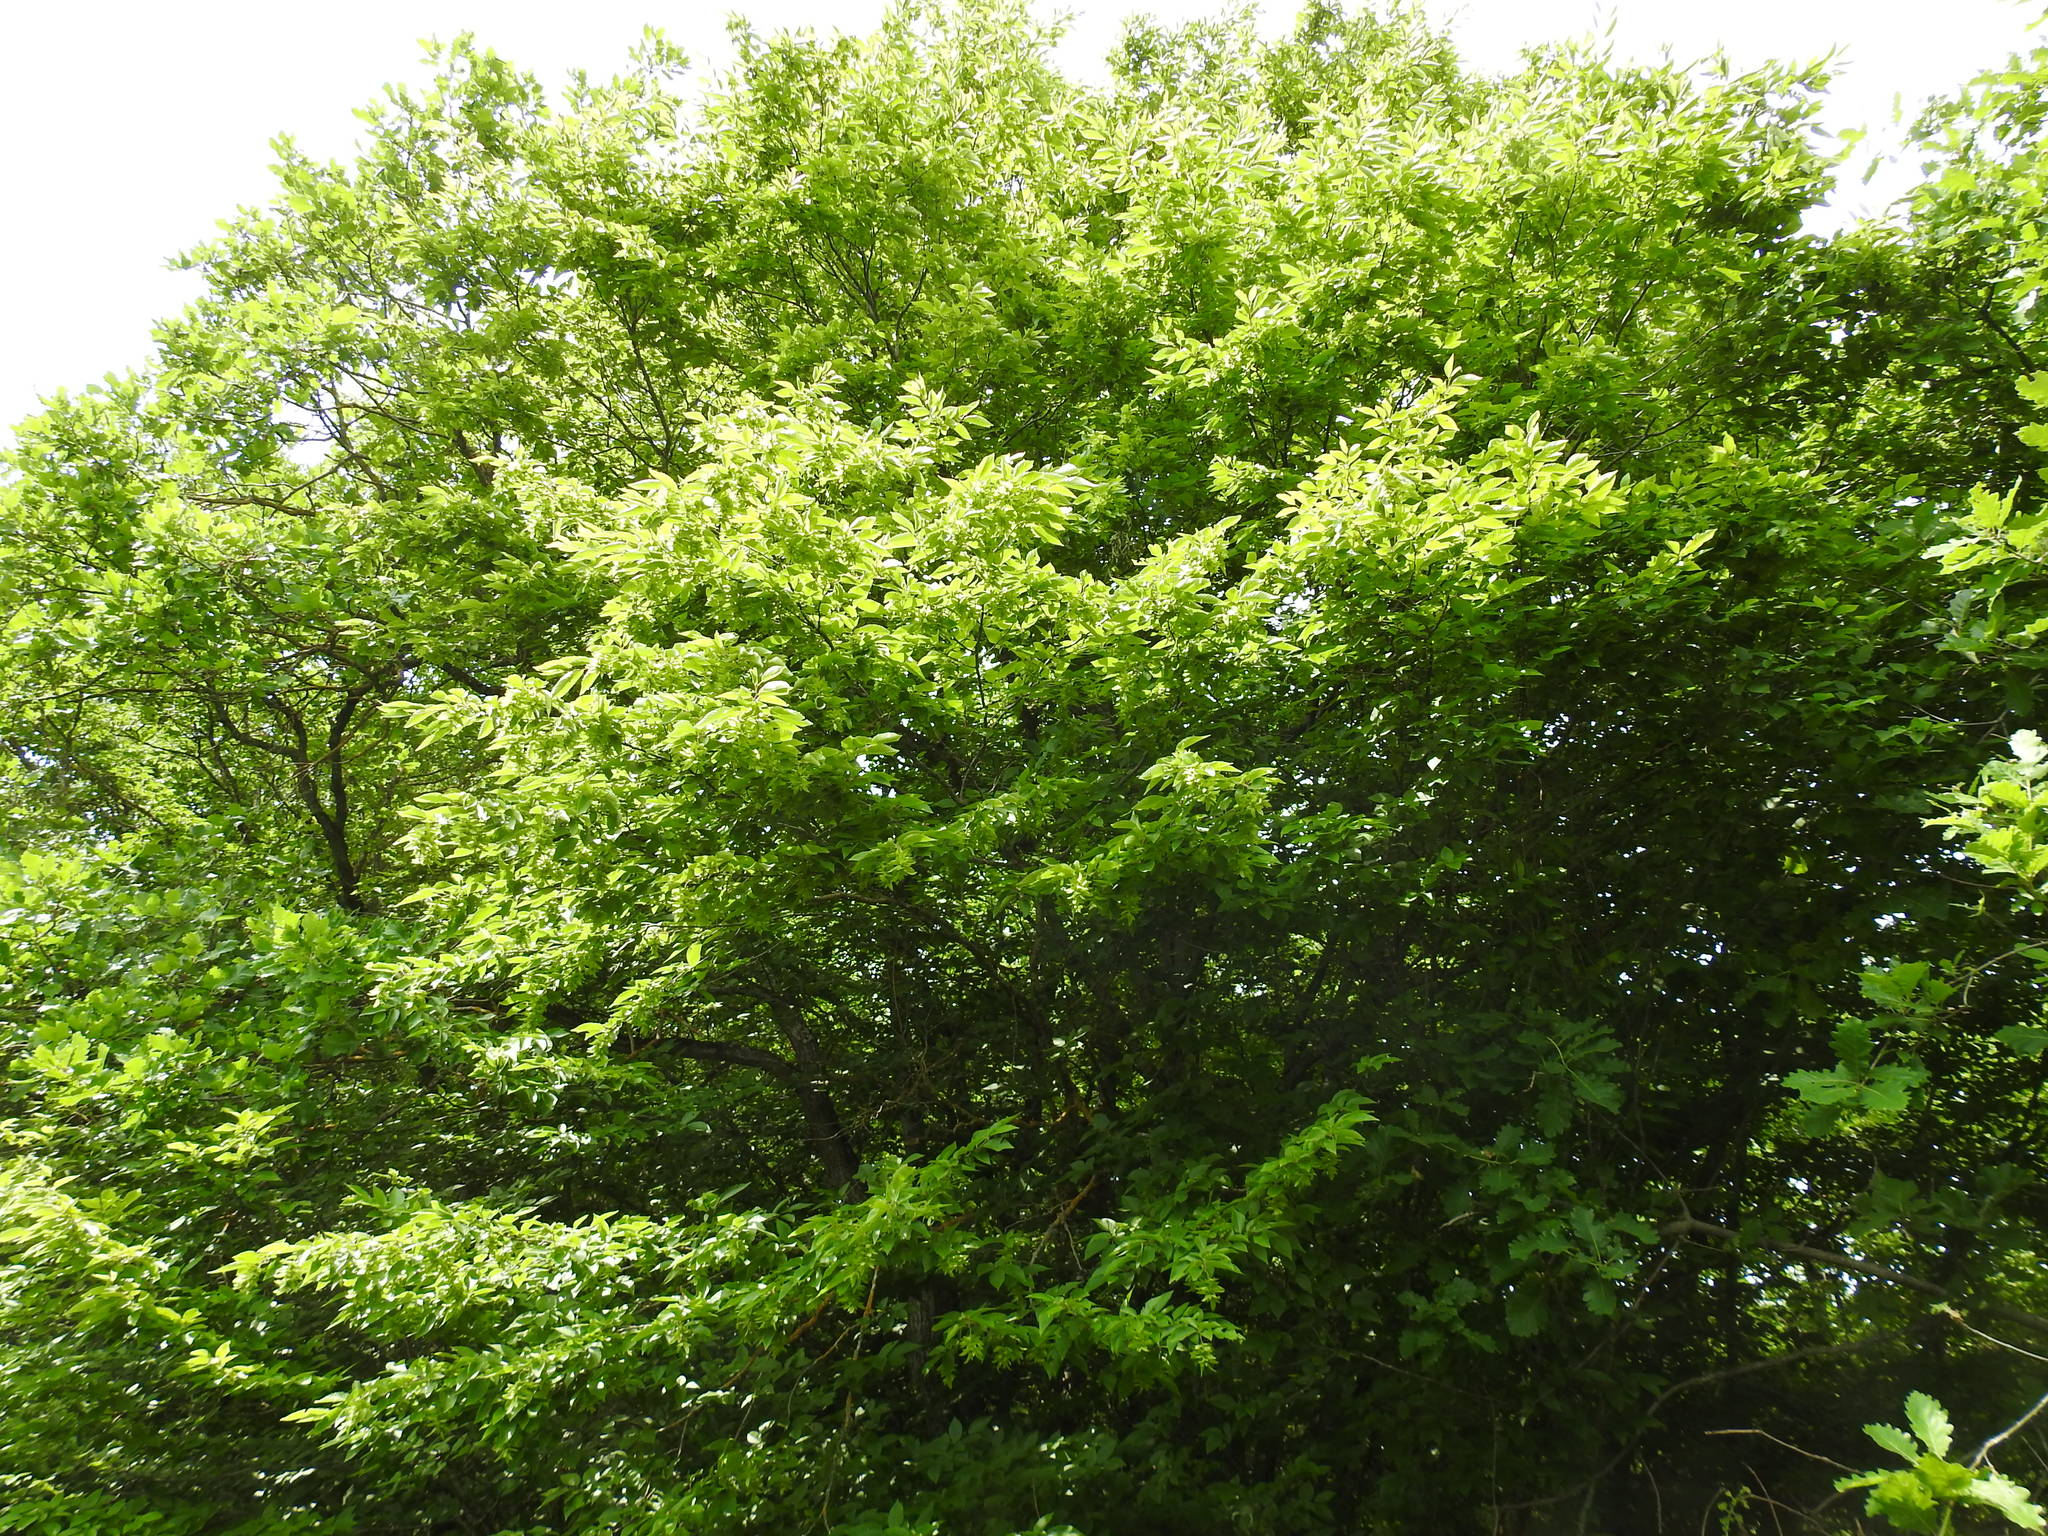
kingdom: Plantae
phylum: Tracheophyta
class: Magnoliopsida
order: Fagales
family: Betulaceae
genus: Carpinus
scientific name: Carpinus betulus
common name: Hornbeam
